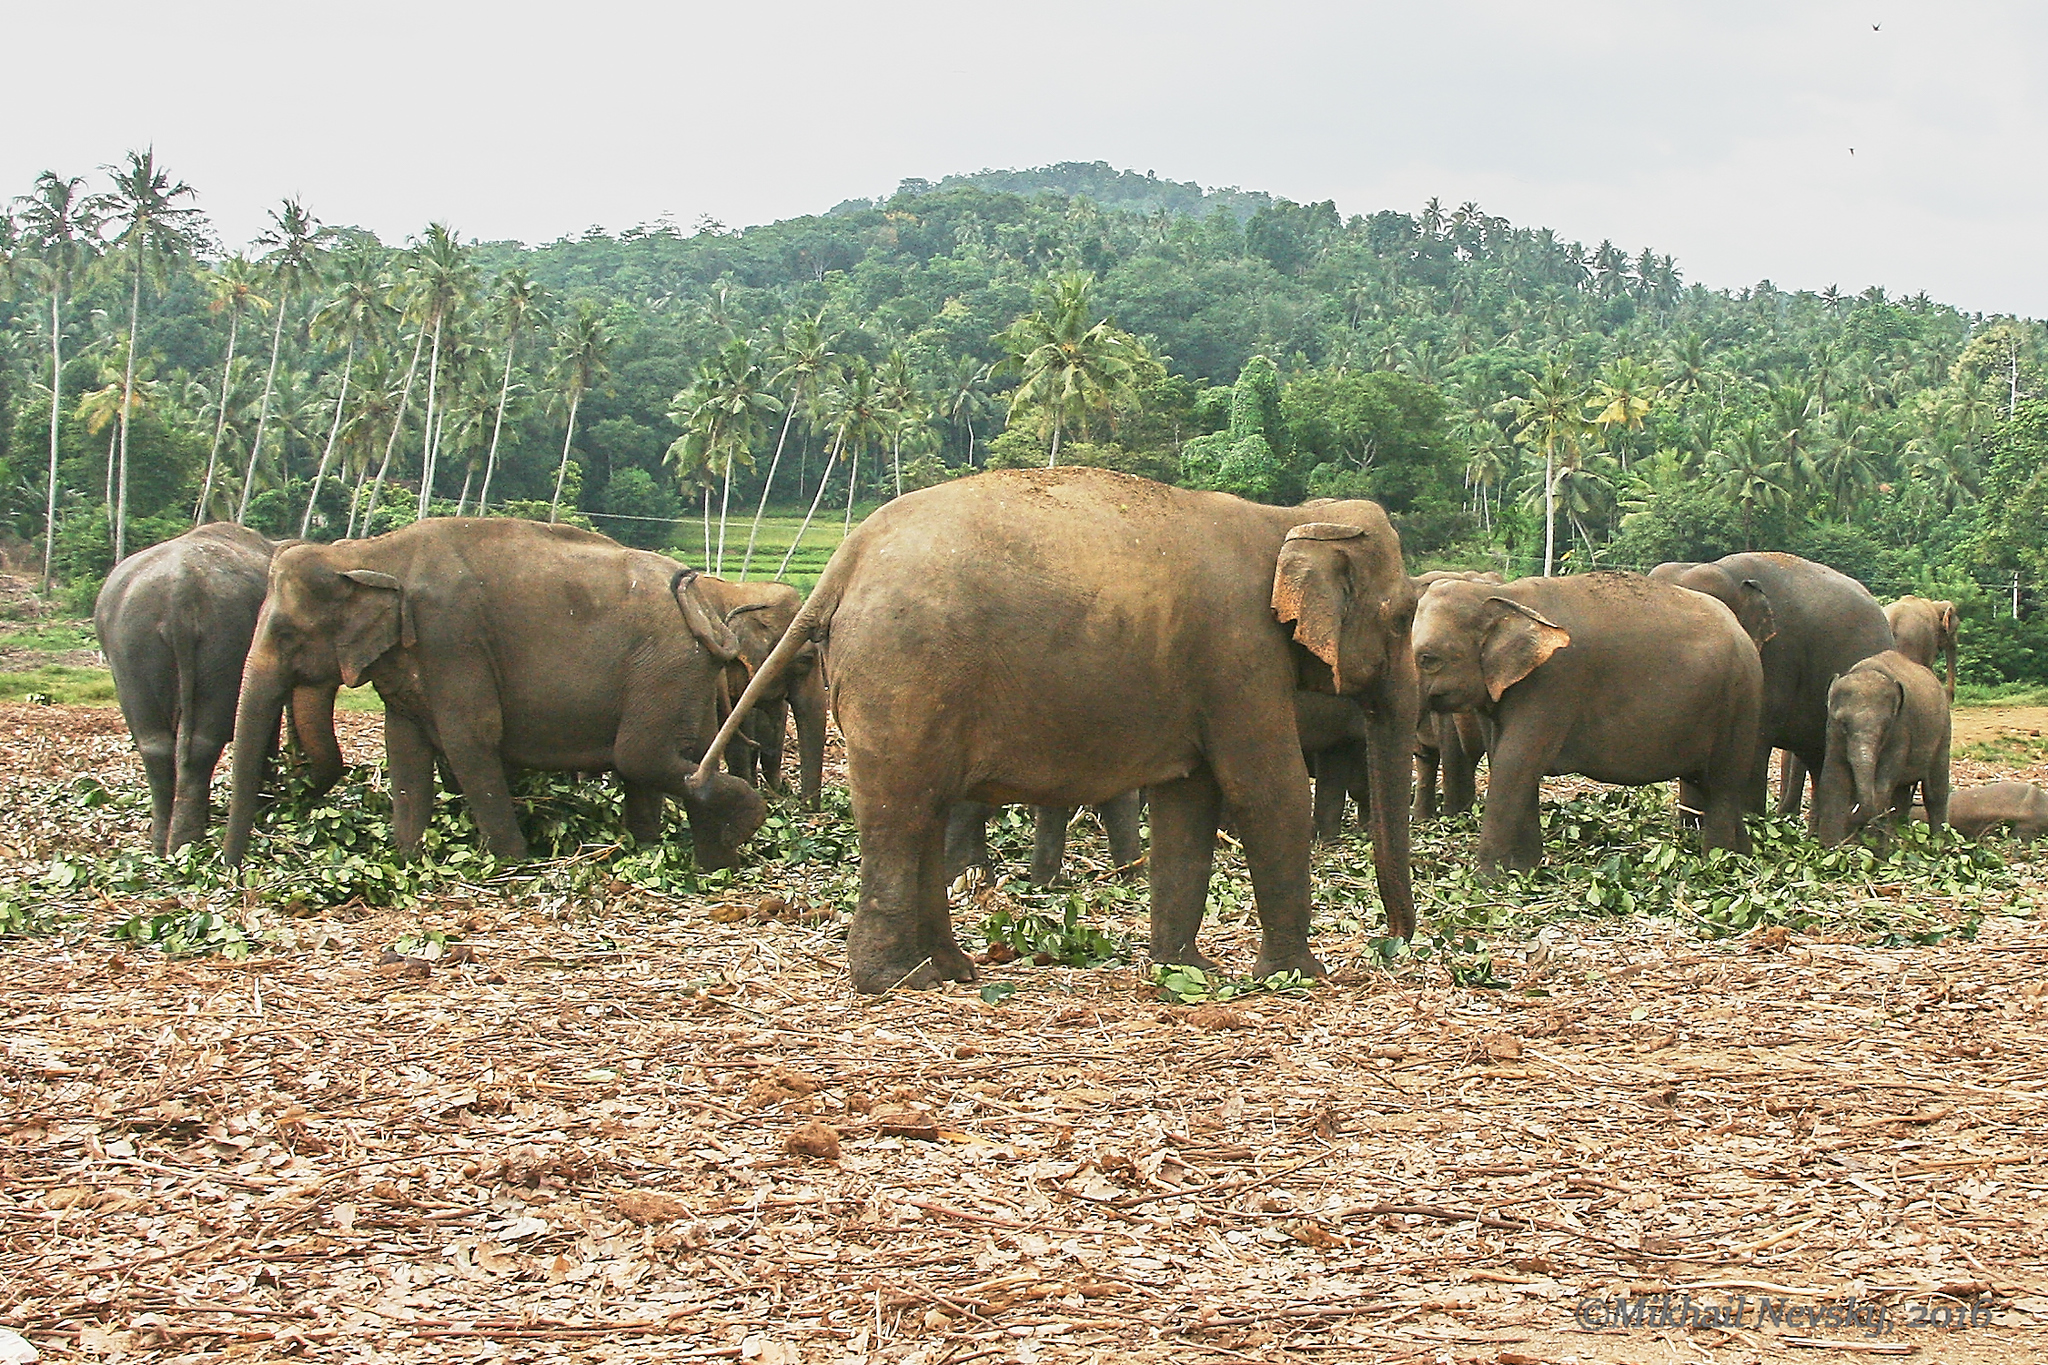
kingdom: Animalia
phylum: Chordata
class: Mammalia
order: Proboscidea
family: Elephantidae
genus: Elephas
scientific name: Elephas maximus
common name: Asian elephant
